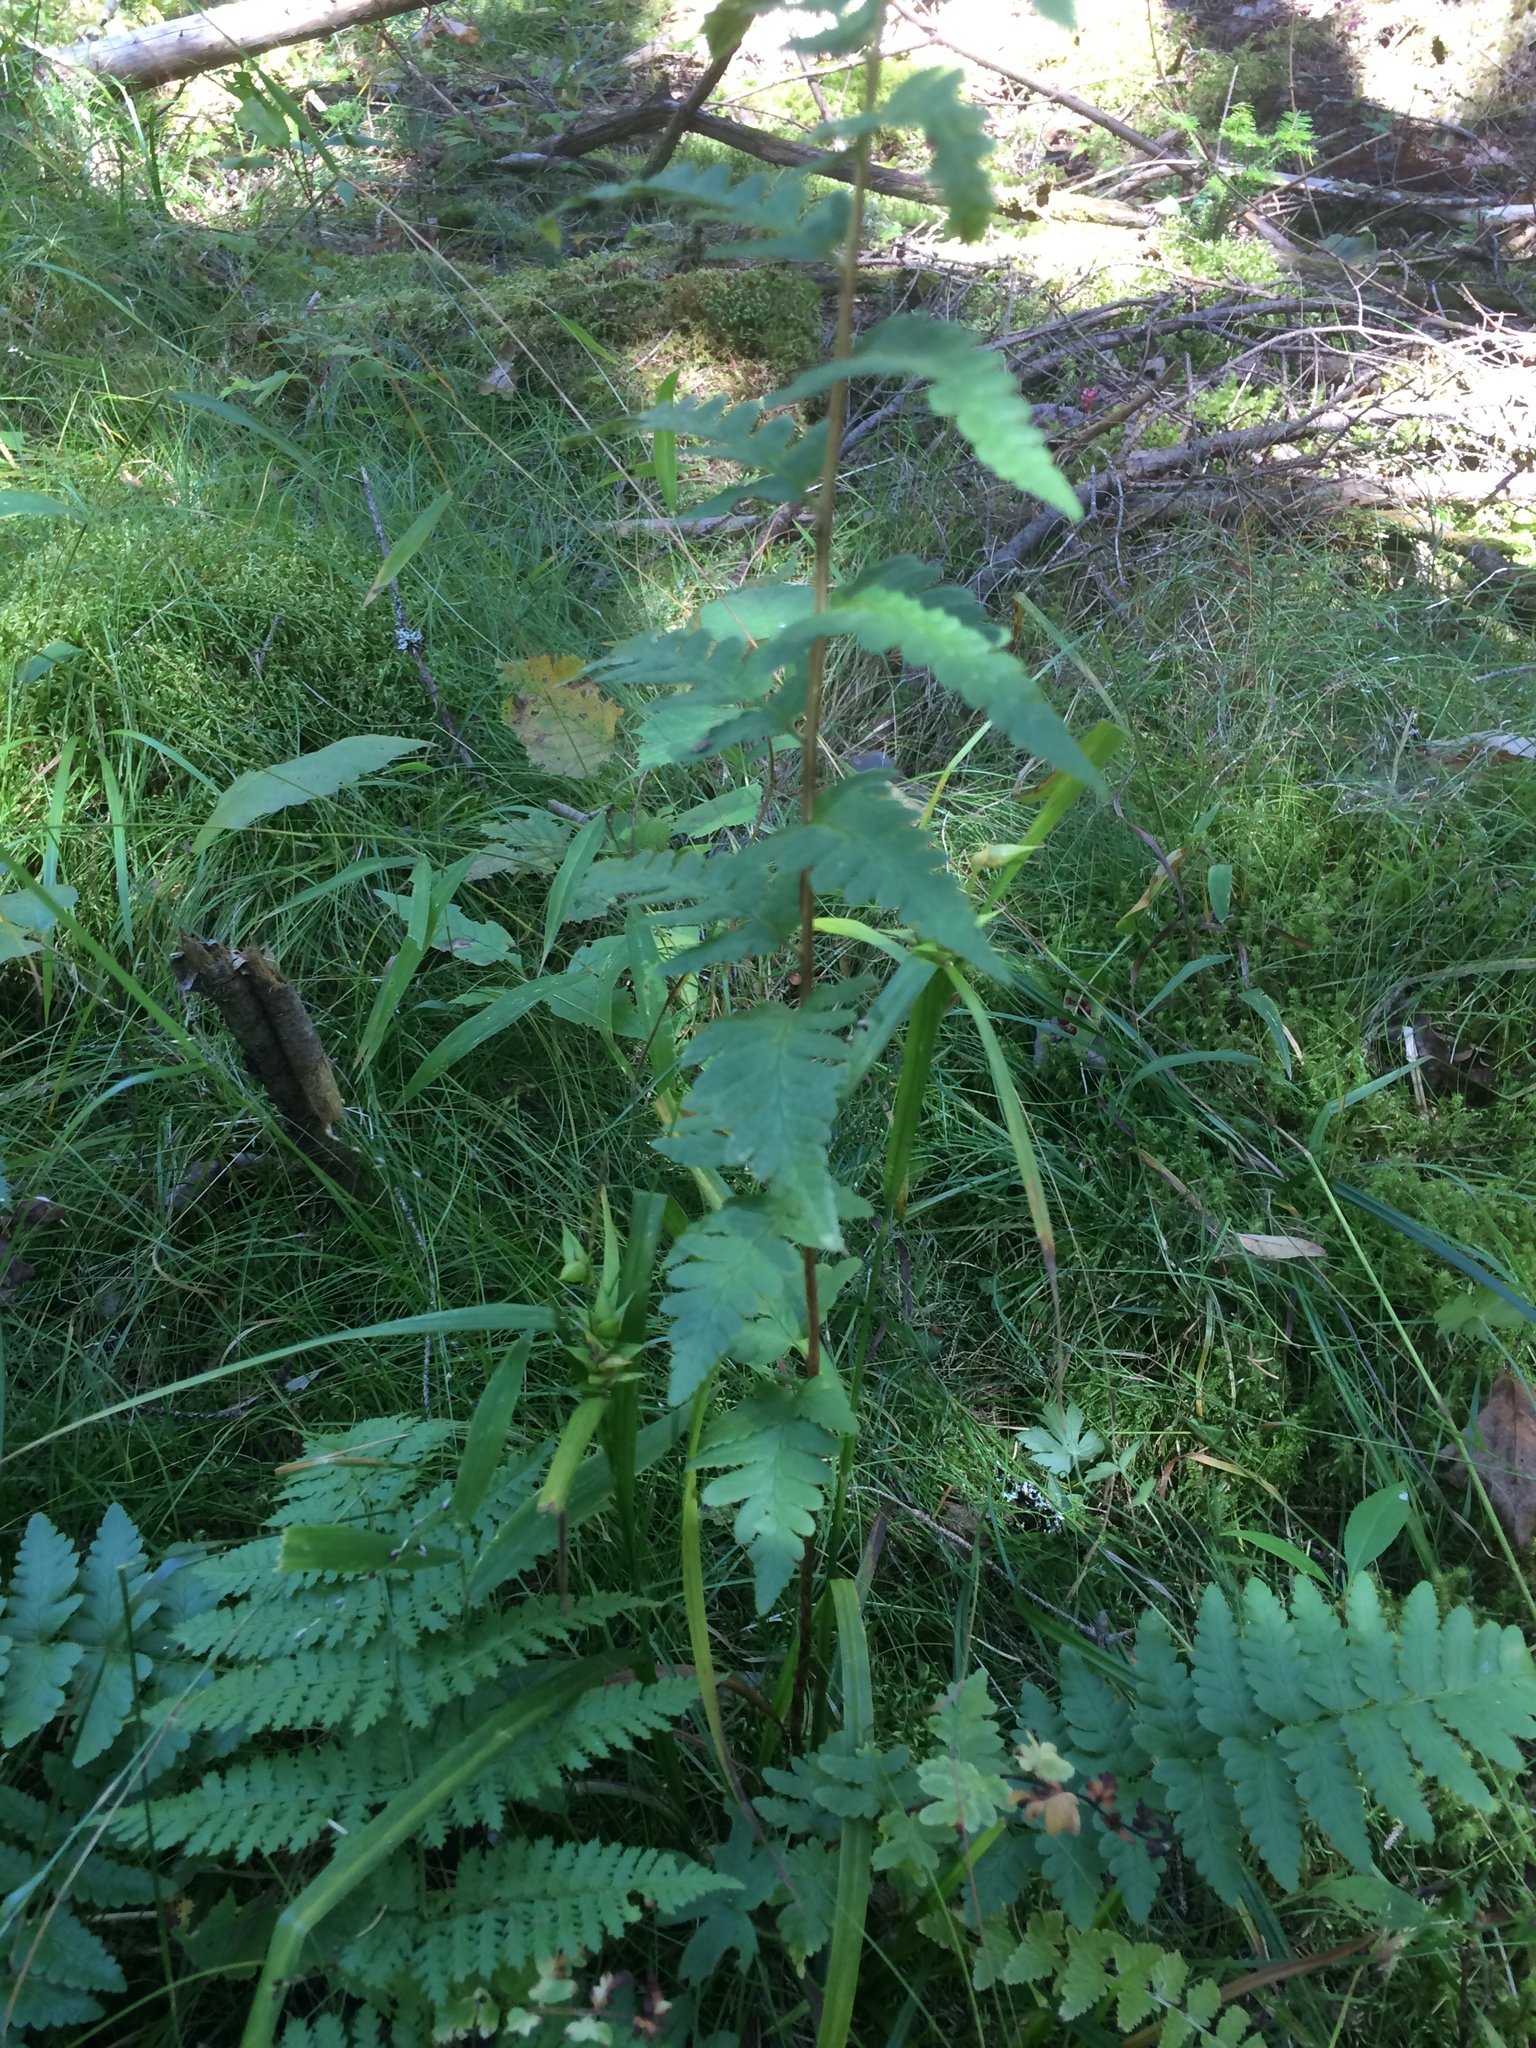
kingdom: Plantae
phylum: Tracheophyta
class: Polypodiopsida
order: Polypodiales
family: Dryopteridaceae
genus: Dryopteris
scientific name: Dryopteris cristata
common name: Crested wood fern
